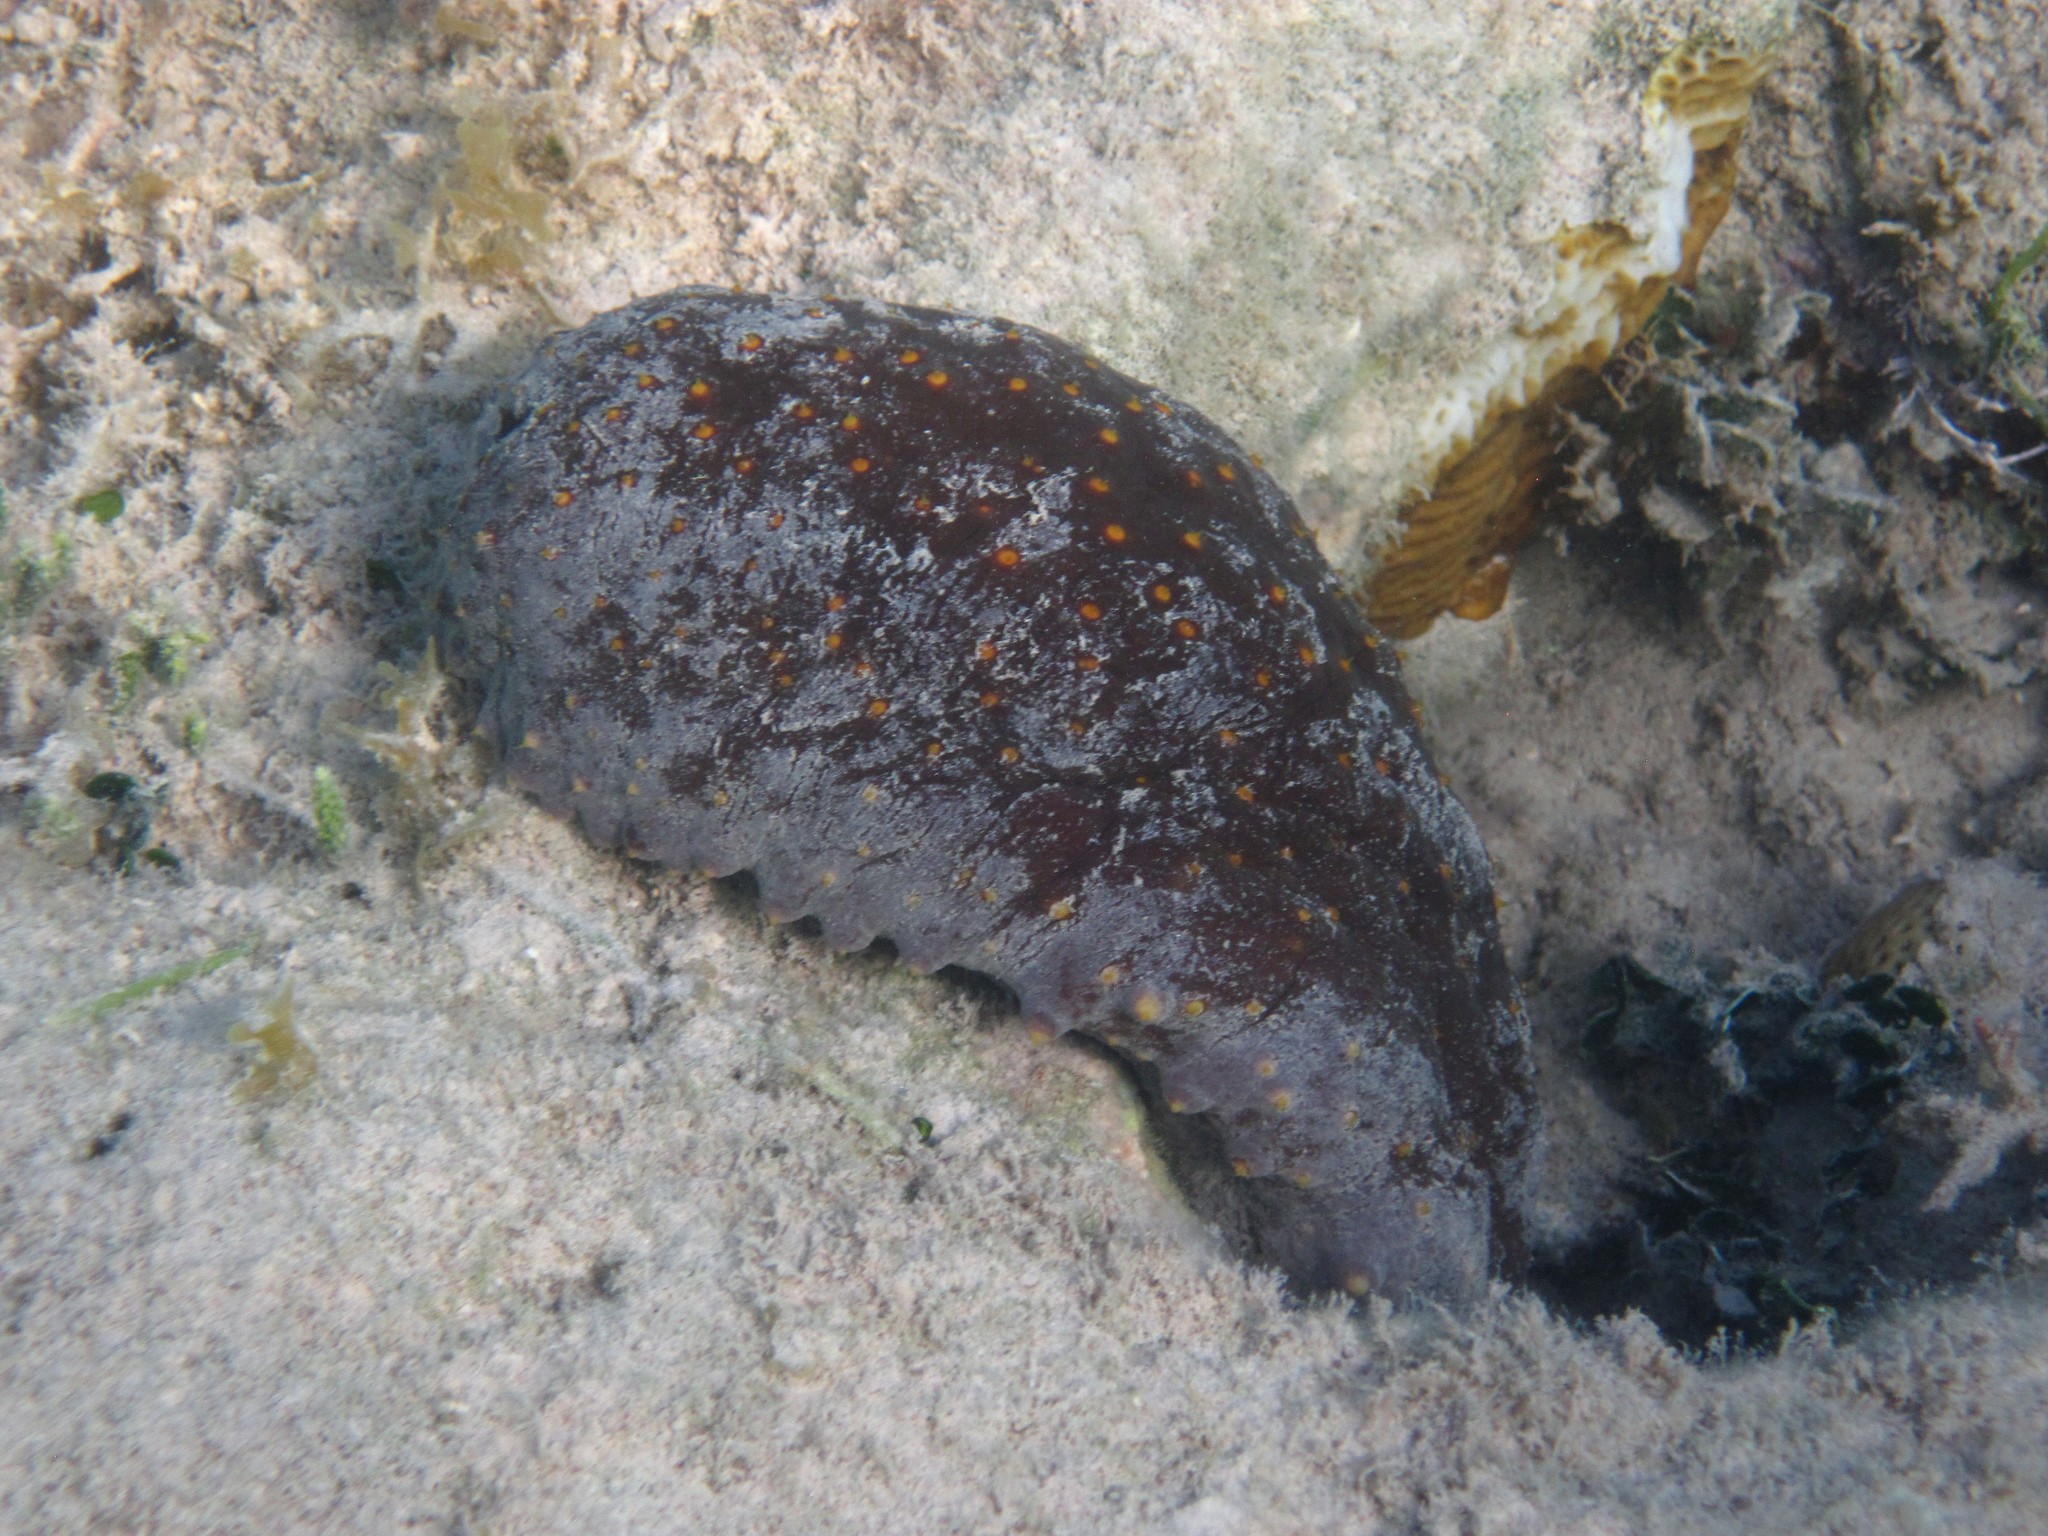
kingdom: Animalia
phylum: Echinodermata
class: Holothuroidea
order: Synallactida
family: Stichopodidae
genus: Isostichopus
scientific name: Isostichopus badionotus
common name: Chocolate chip cucumber
